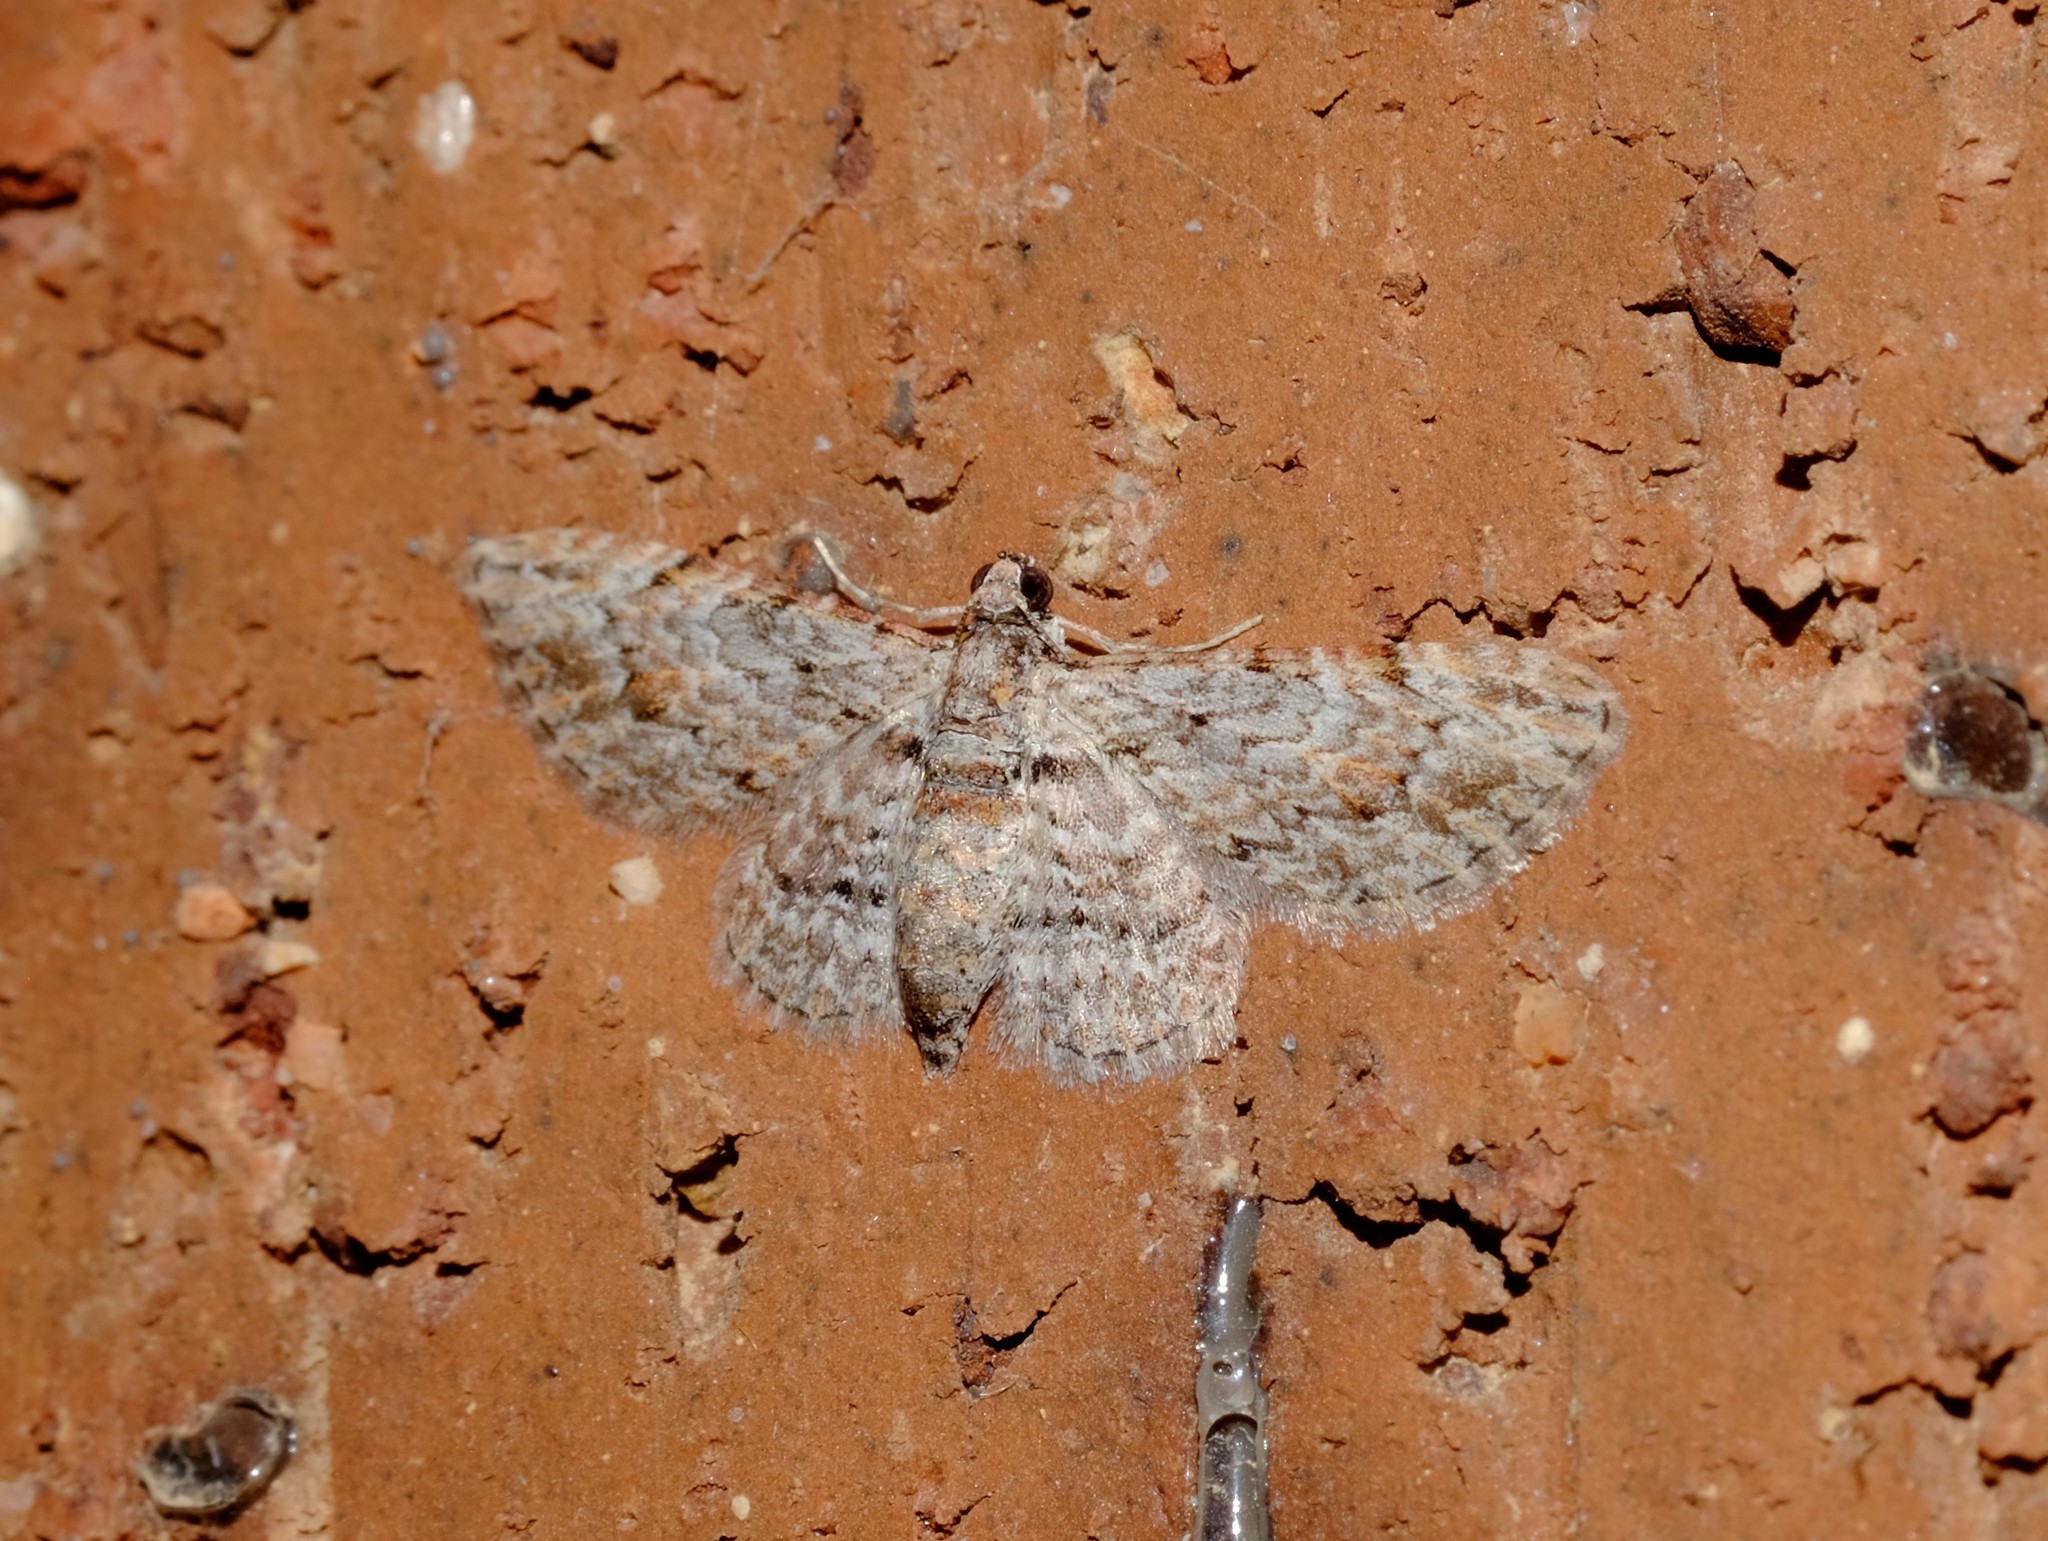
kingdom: Animalia
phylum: Arthropoda
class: Insecta
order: Lepidoptera
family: Geometridae
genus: Chloroclystis
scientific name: Chloroclystis insigillata
